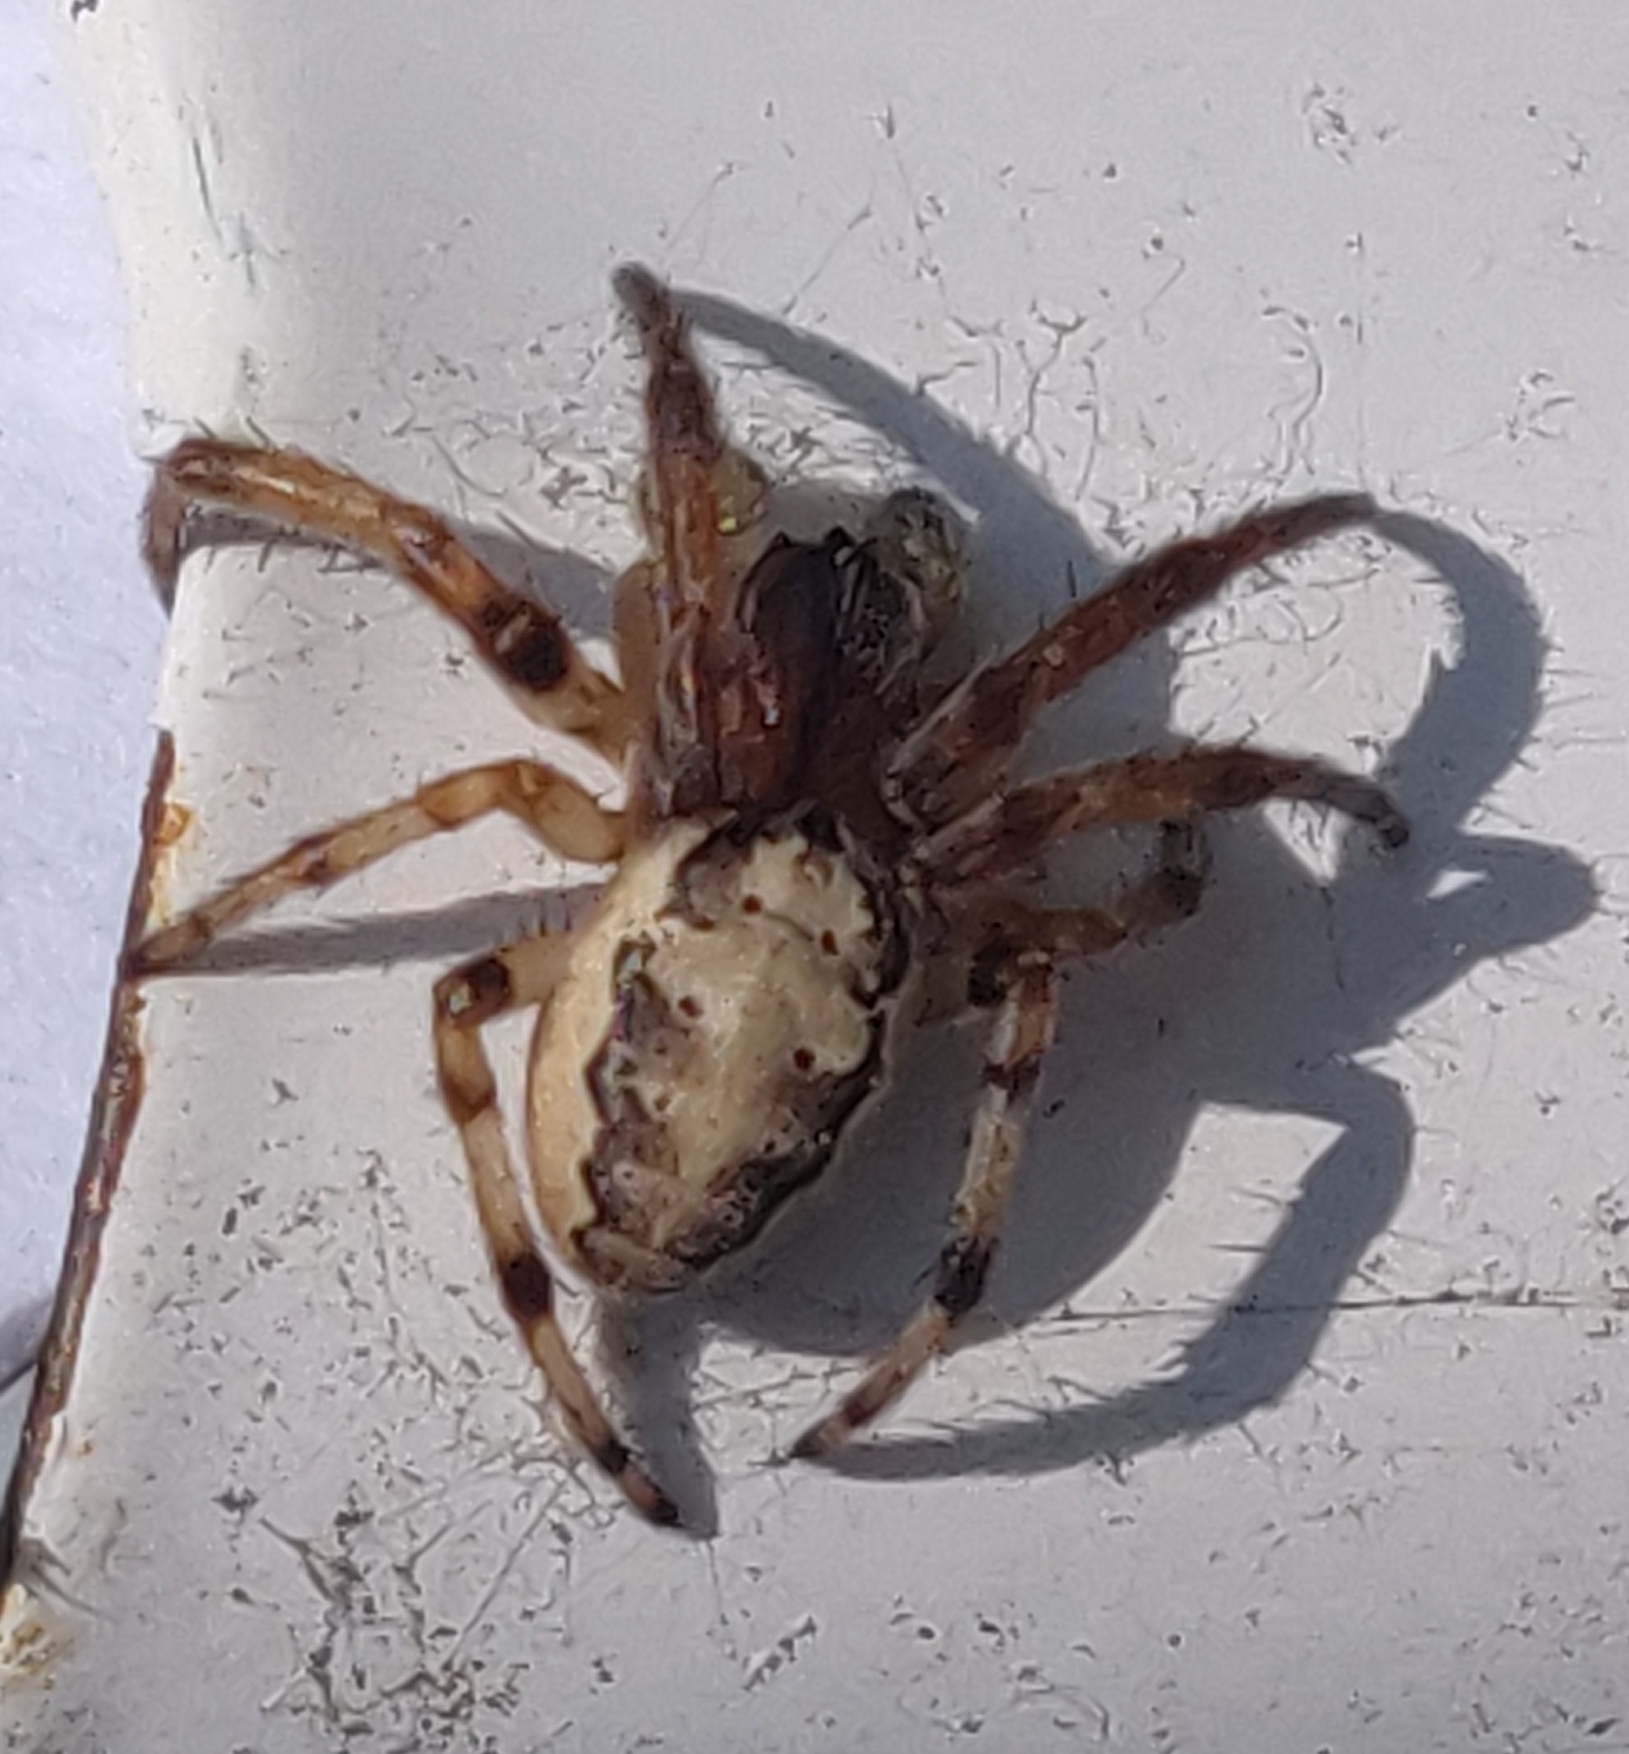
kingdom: Animalia
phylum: Arthropoda
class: Arachnida
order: Araneae
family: Araneidae
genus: Larinioides
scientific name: Larinioides cornutus
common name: Furrow orbweaver
